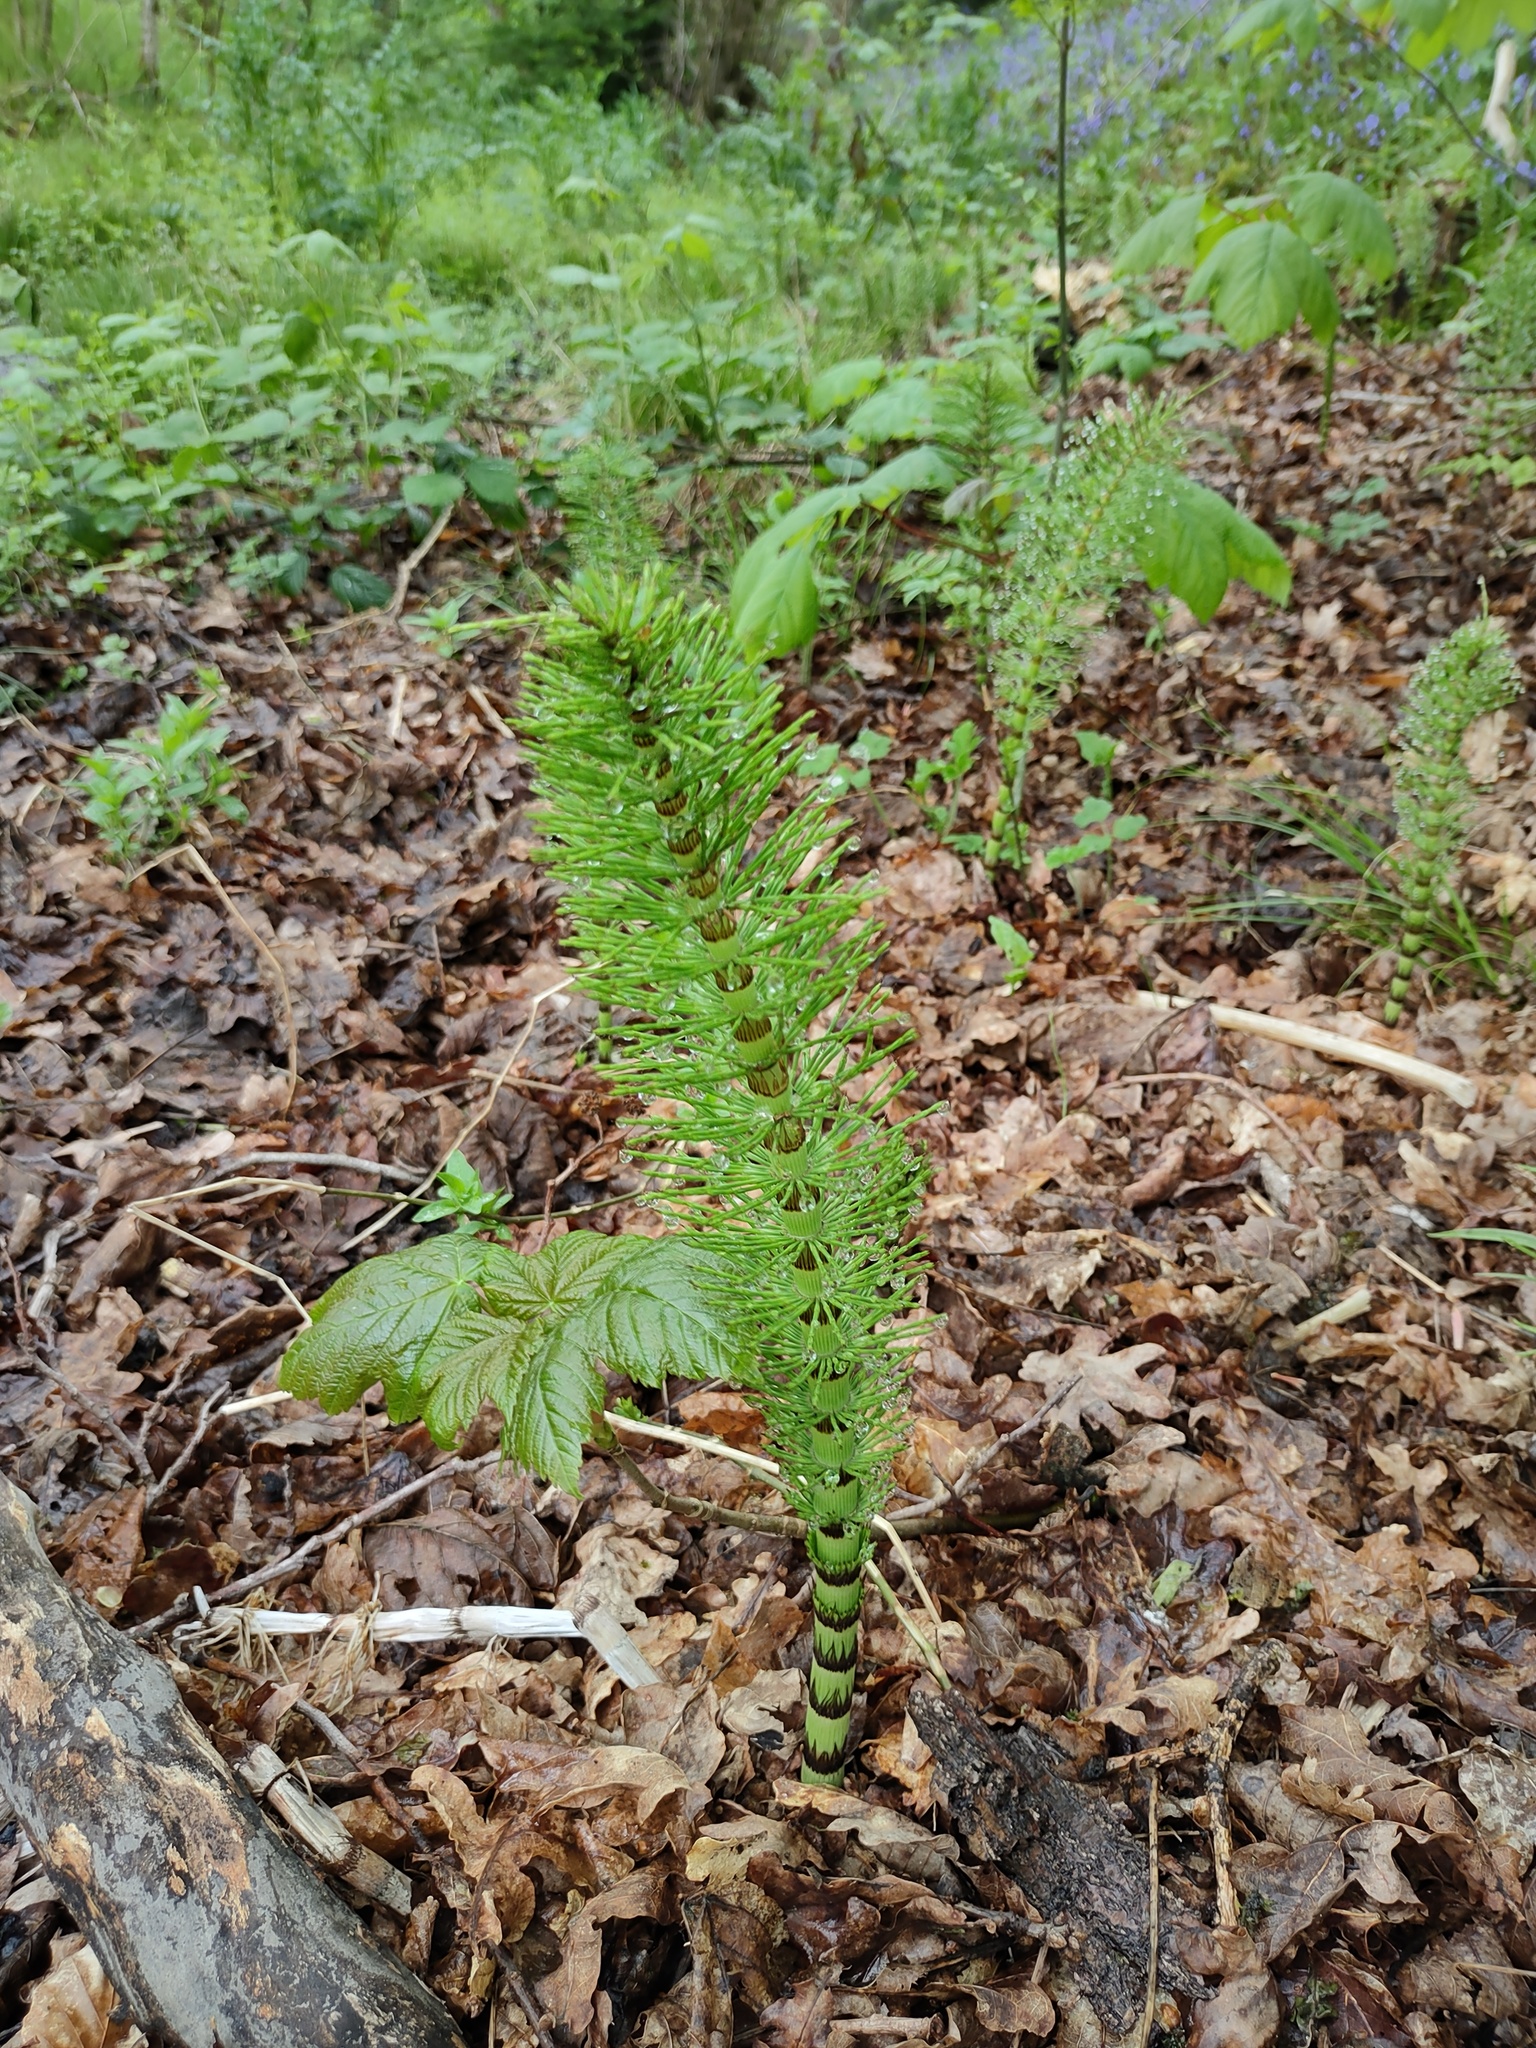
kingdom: Plantae
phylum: Tracheophyta
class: Polypodiopsida
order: Equisetales
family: Equisetaceae
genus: Equisetum
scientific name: Equisetum telmateia
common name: Great horsetail
